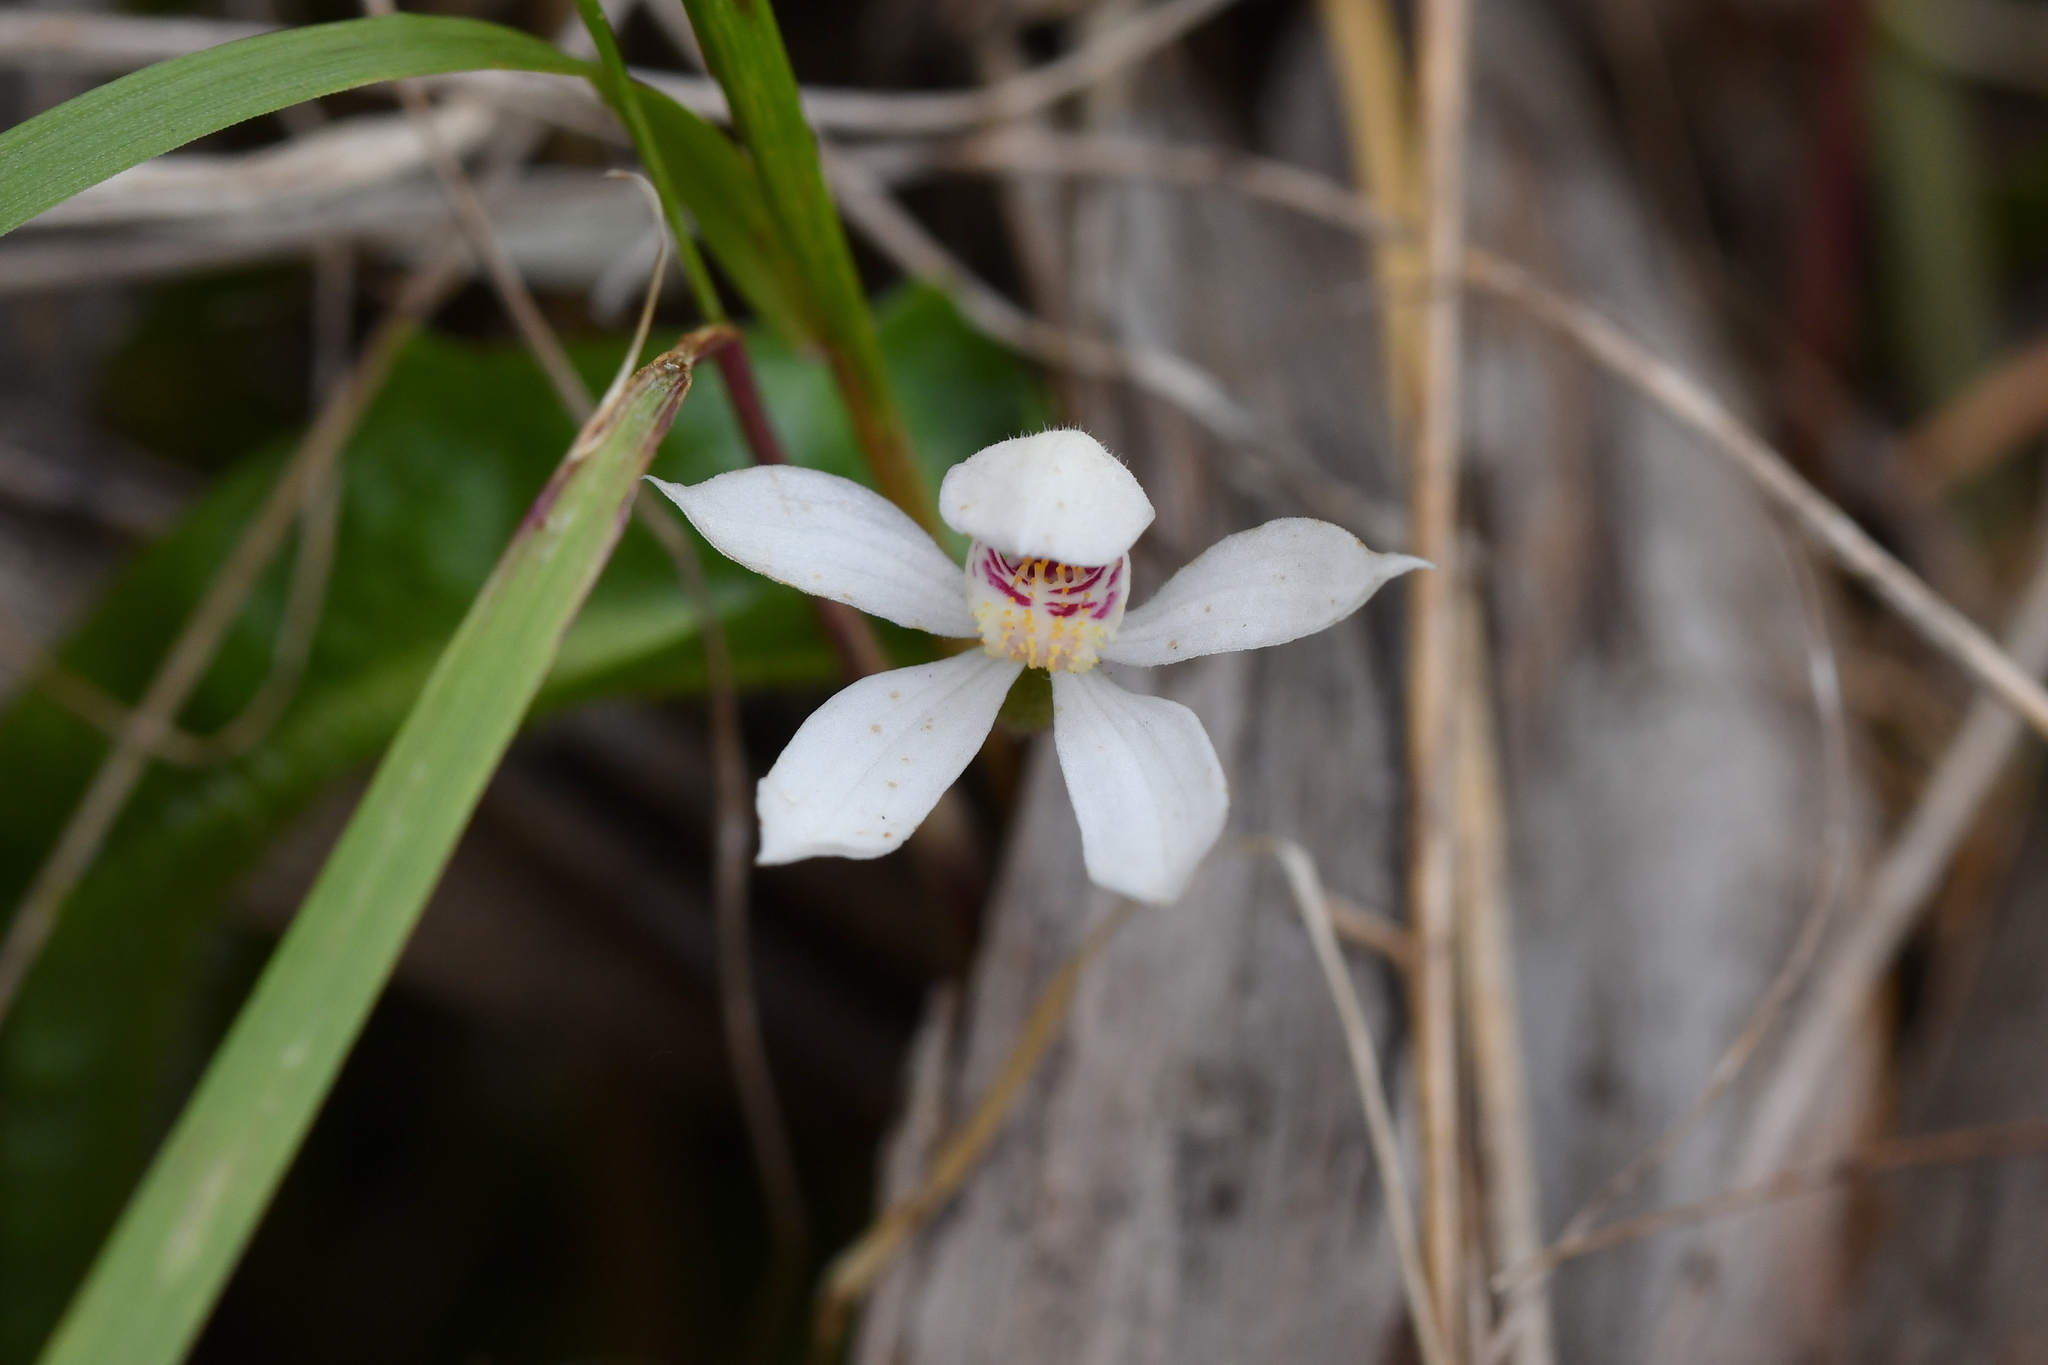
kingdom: Plantae
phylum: Tracheophyta
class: Liliopsida
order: Asparagales
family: Orchidaceae
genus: Caladenia
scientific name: Caladenia lyallii
